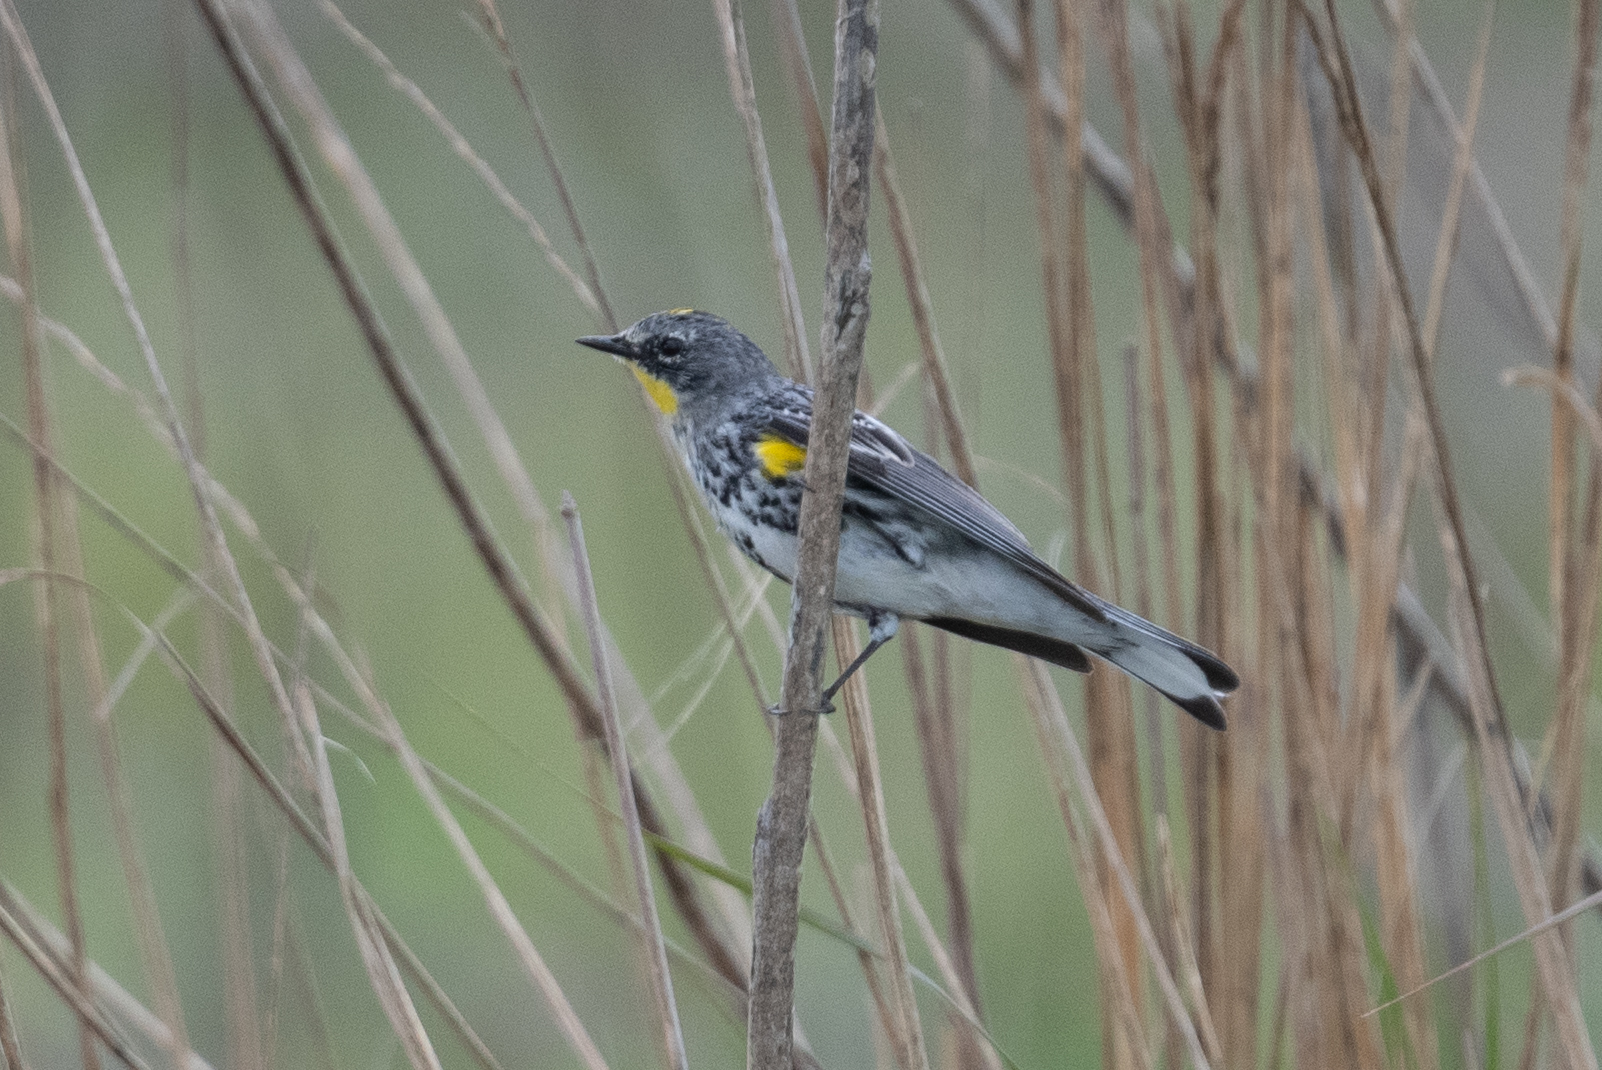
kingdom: Animalia
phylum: Chordata
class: Aves
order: Passeriformes
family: Parulidae
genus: Setophaga
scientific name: Setophaga coronata
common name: Myrtle warbler
